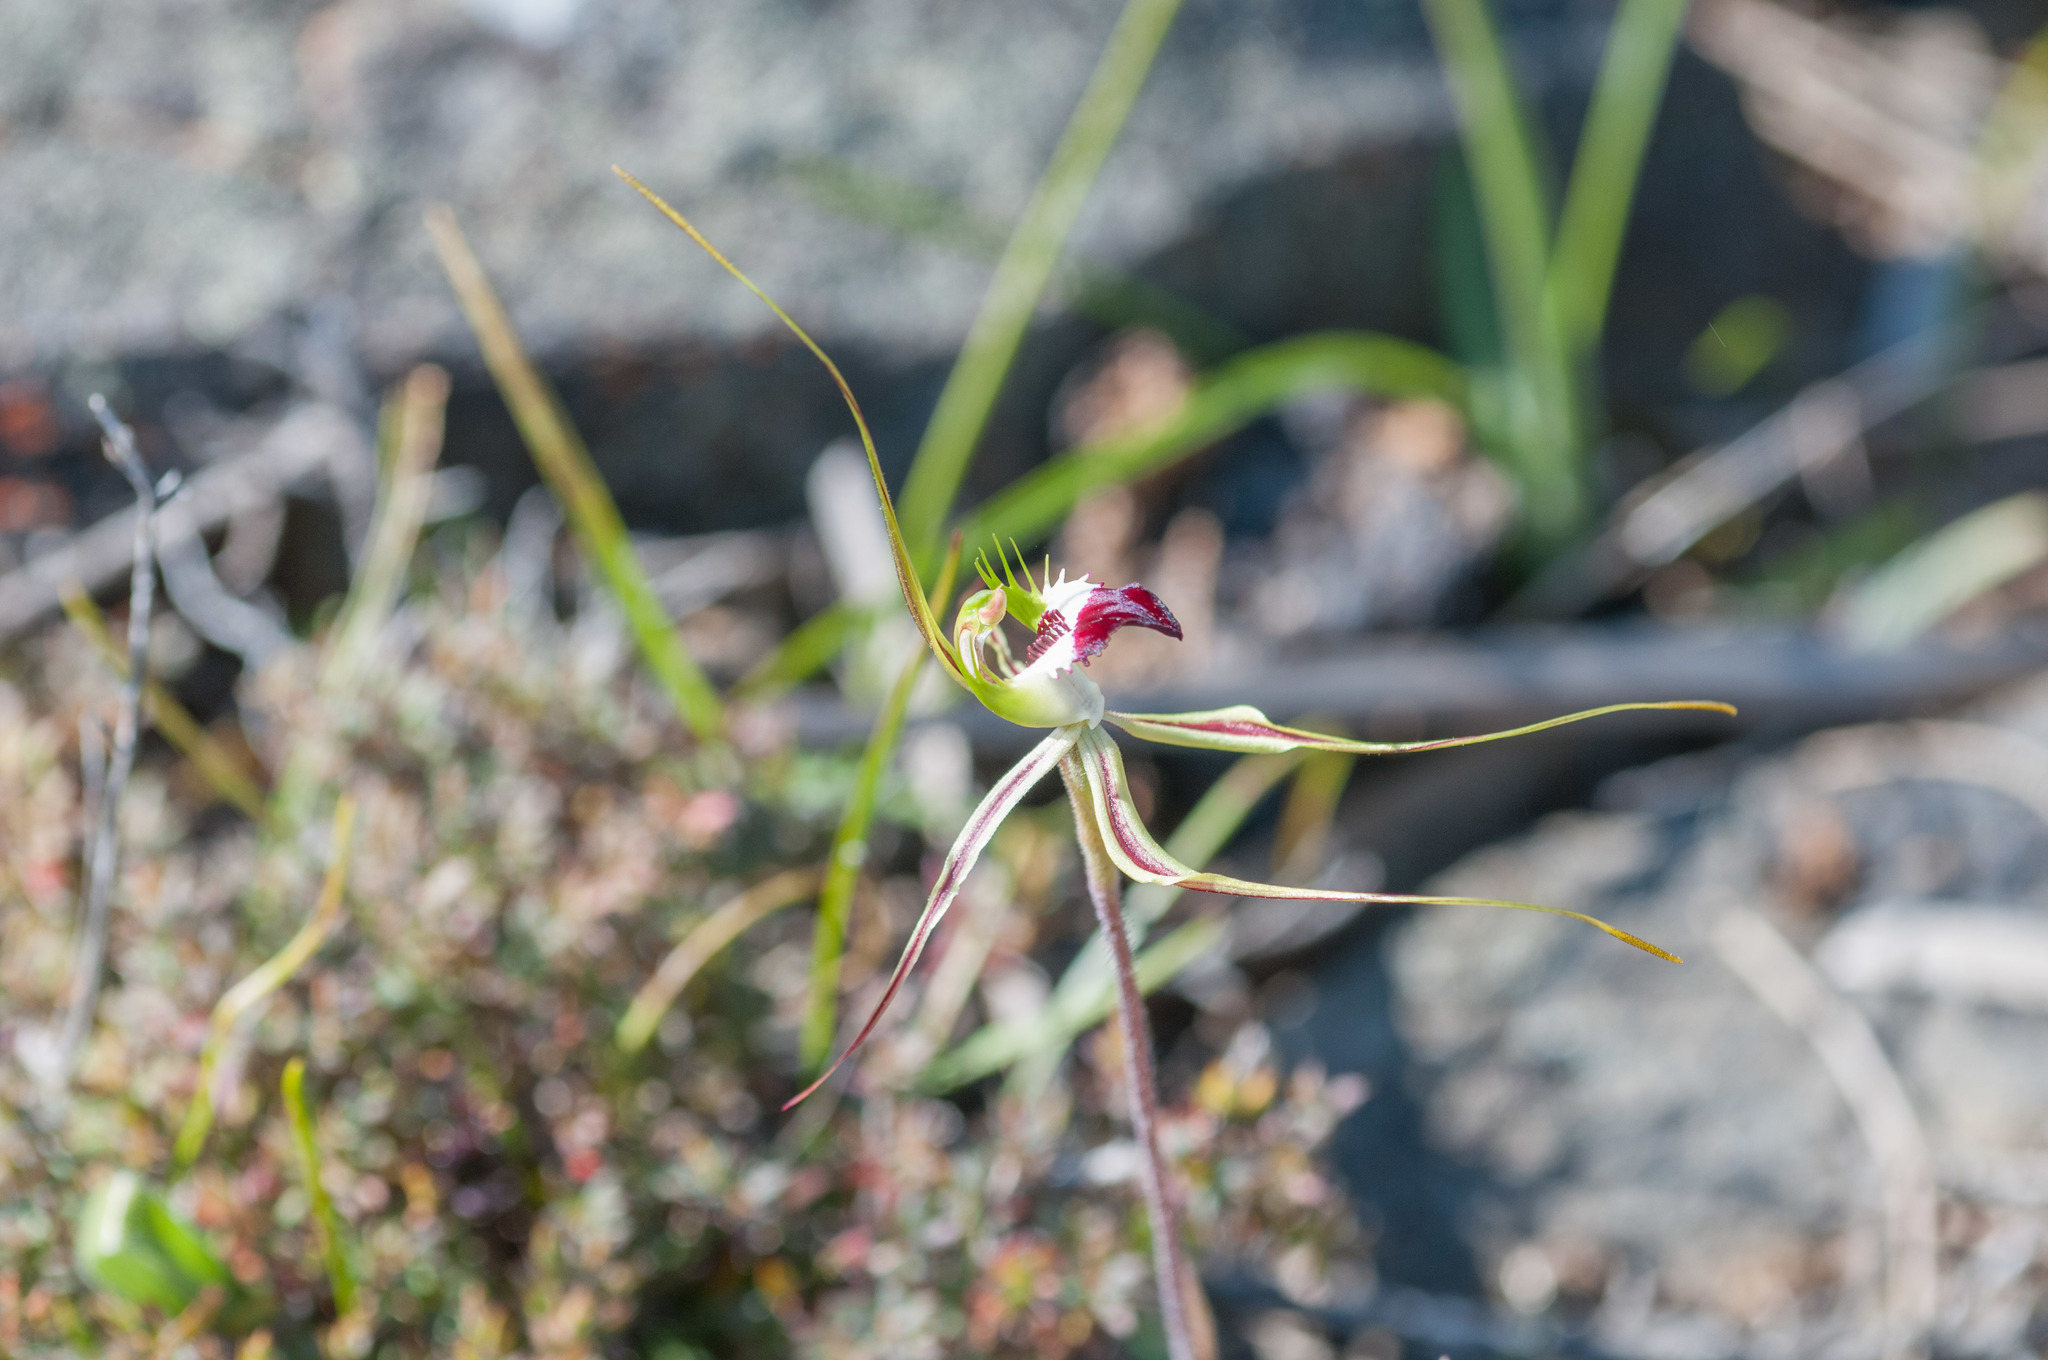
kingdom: Plantae
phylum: Tracheophyta
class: Liliopsida
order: Asparagales
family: Orchidaceae
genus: Caladenia
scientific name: Caladenia tentaculata
